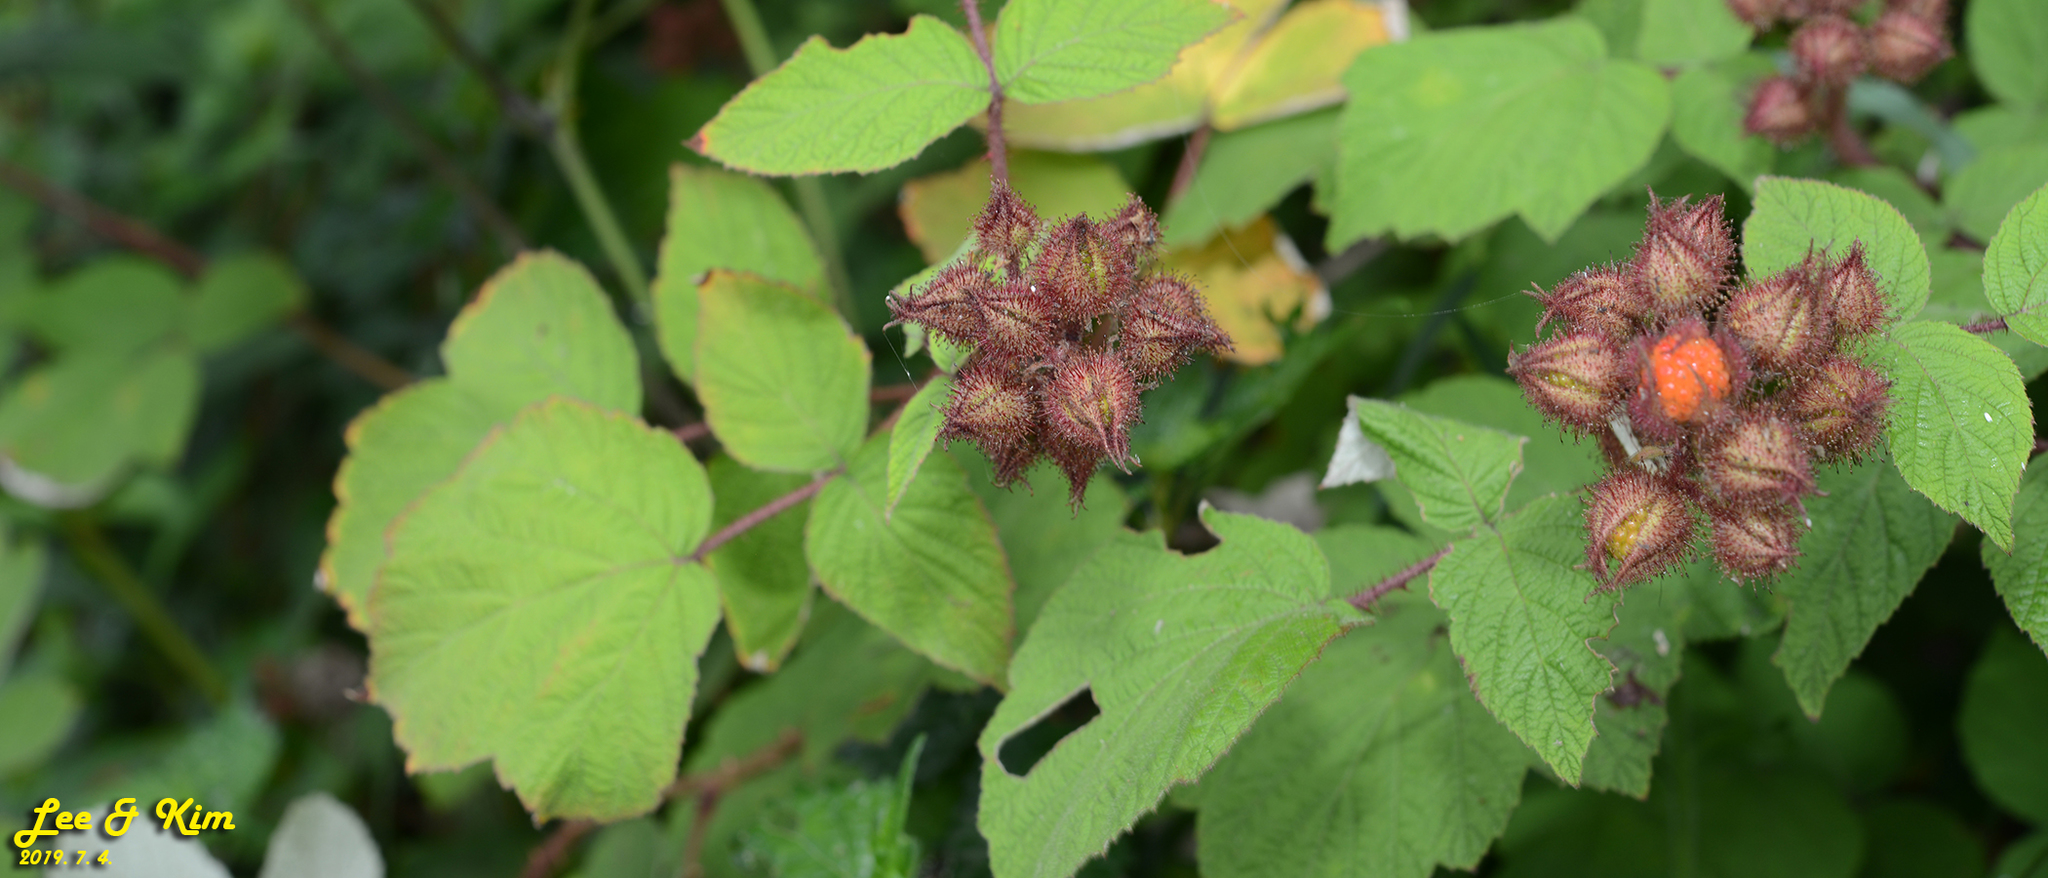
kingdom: Plantae
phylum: Tracheophyta
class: Magnoliopsida
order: Rosales
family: Rosaceae
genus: Rubus
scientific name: Rubus phoenicolasius
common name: Japanese wineberry
